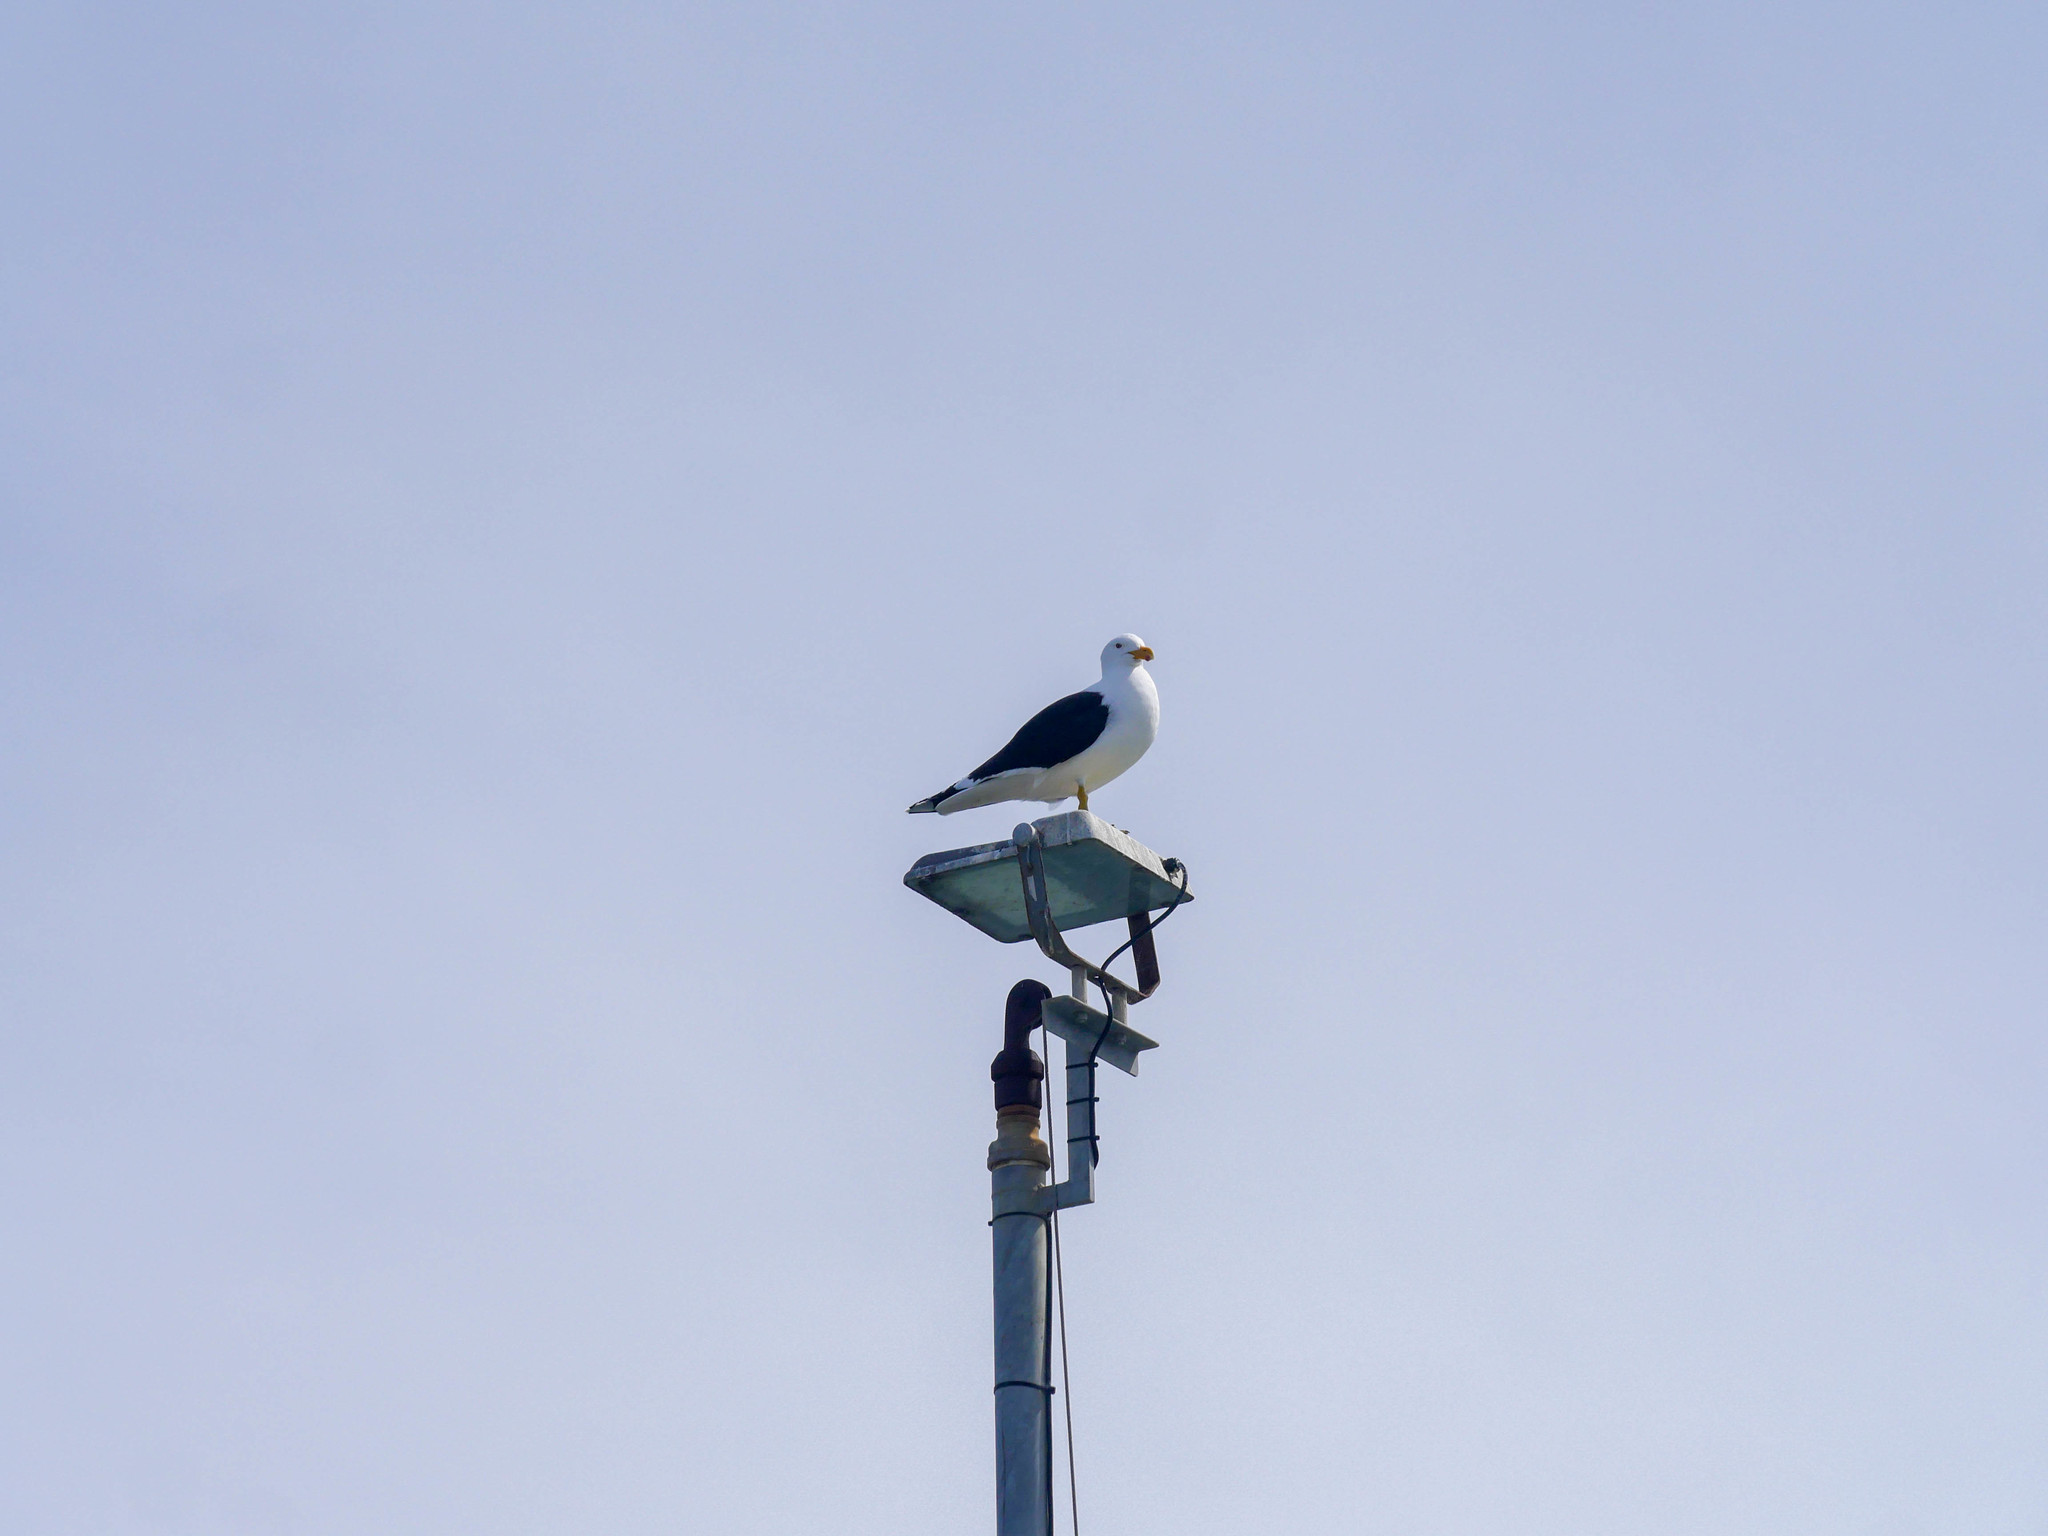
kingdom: Animalia
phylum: Chordata
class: Aves
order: Charadriiformes
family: Laridae
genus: Larus
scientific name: Larus dominicanus
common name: Kelp gull
